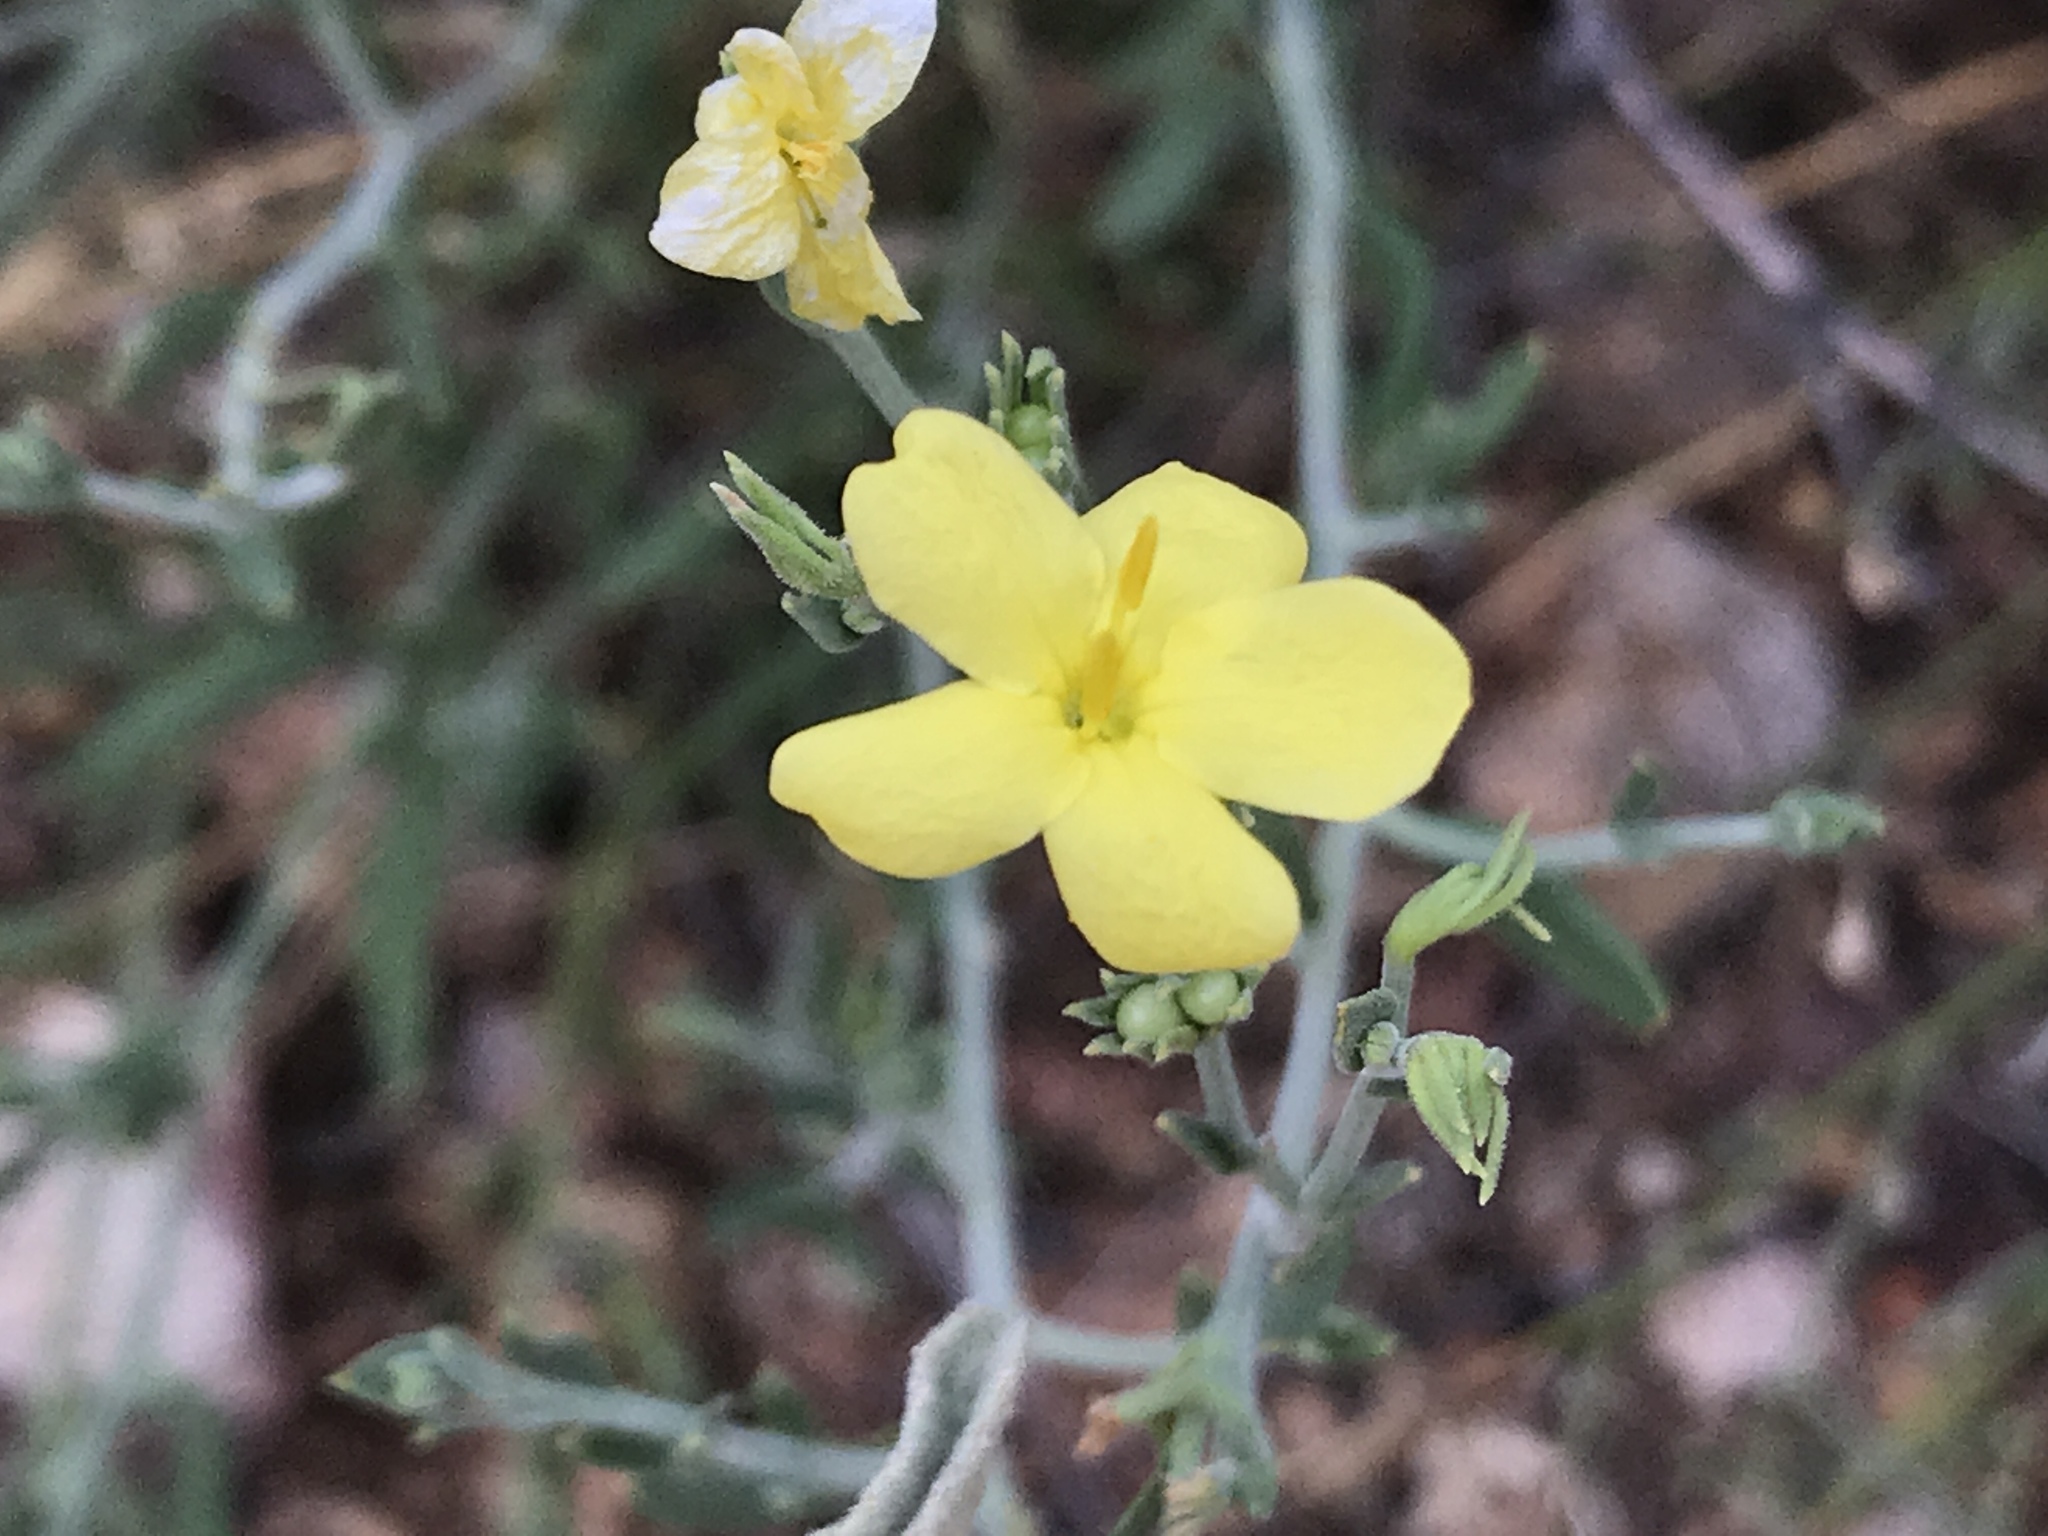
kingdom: Plantae
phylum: Tracheophyta
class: Magnoliopsida
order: Lamiales
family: Oleaceae
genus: Menodora
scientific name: Menodora scabra
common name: Rough menodora
